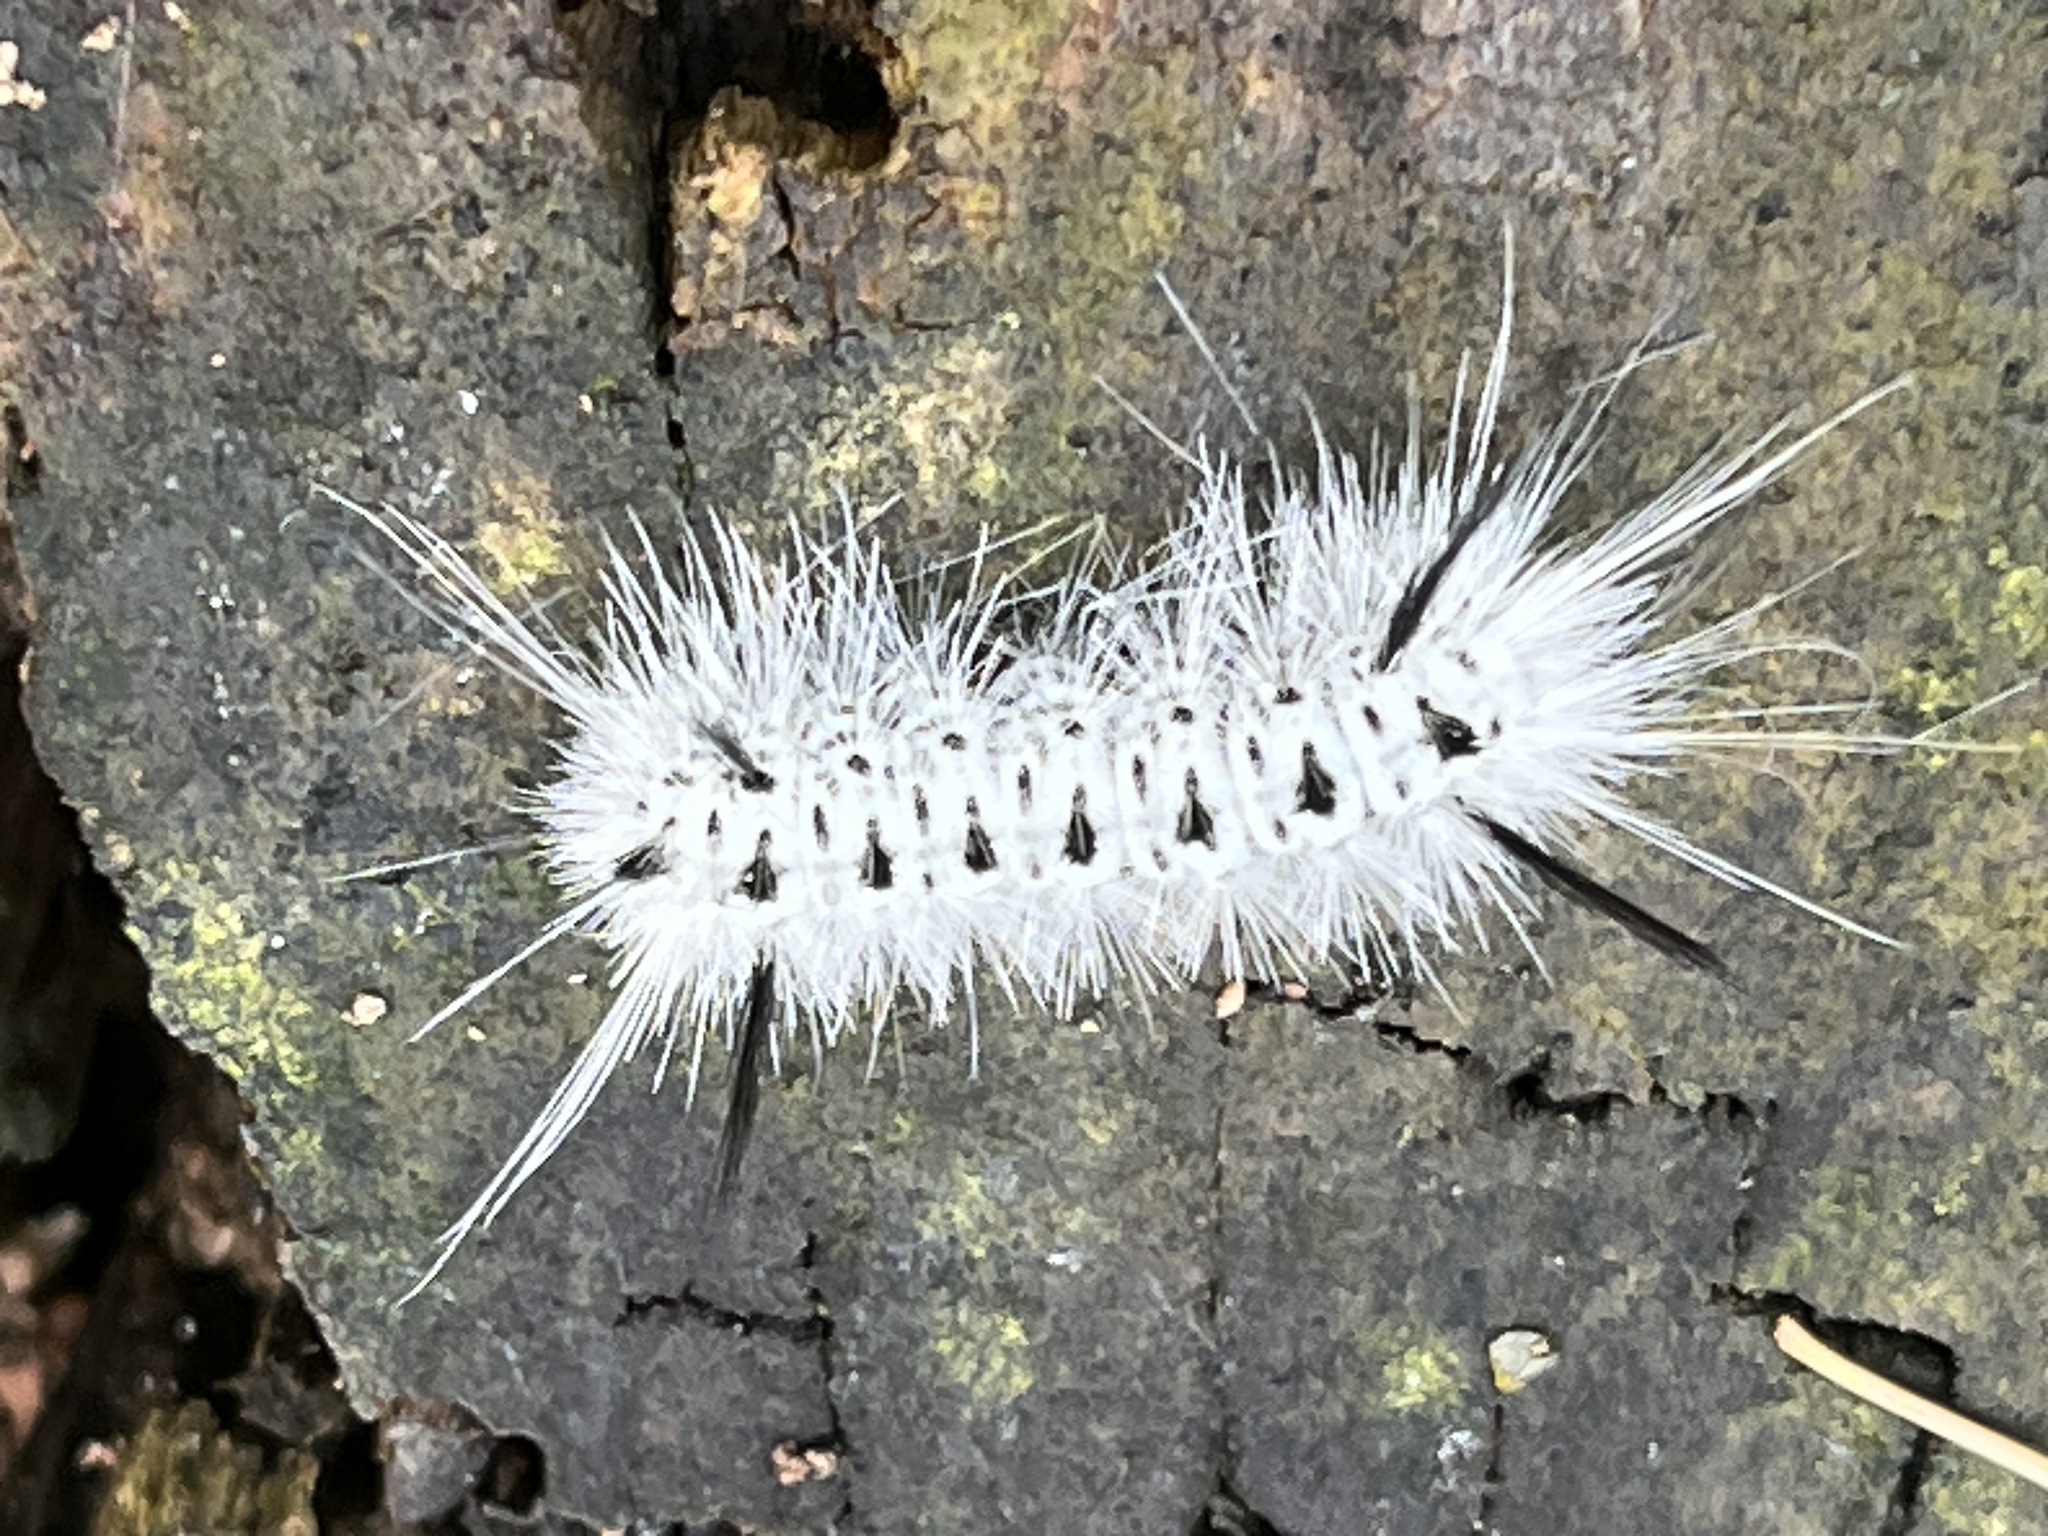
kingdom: Animalia
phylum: Arthropoda
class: Insecta
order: Lepidoptera
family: Erebidae
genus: Lophocampa
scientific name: Lophocampa caryae
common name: Hickory tussock moth
